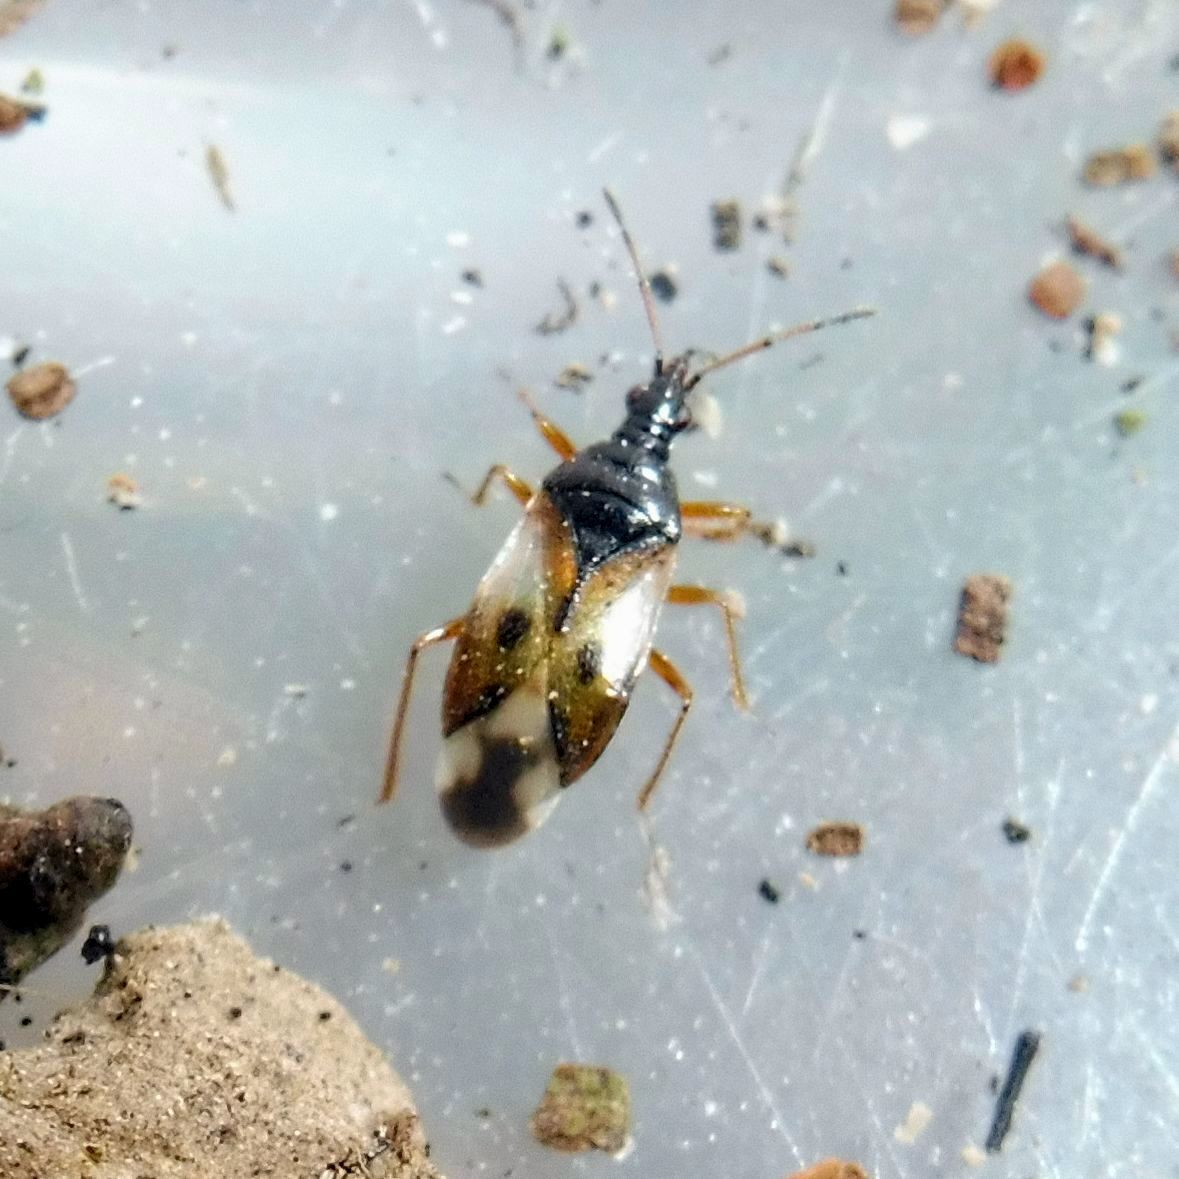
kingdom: Animalia
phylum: Arthropoda
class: Insecta
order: Hemiptera
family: Anthocoridae
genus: Anthocoris
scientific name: Anthocoris nemorum
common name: Minute pirate bug
